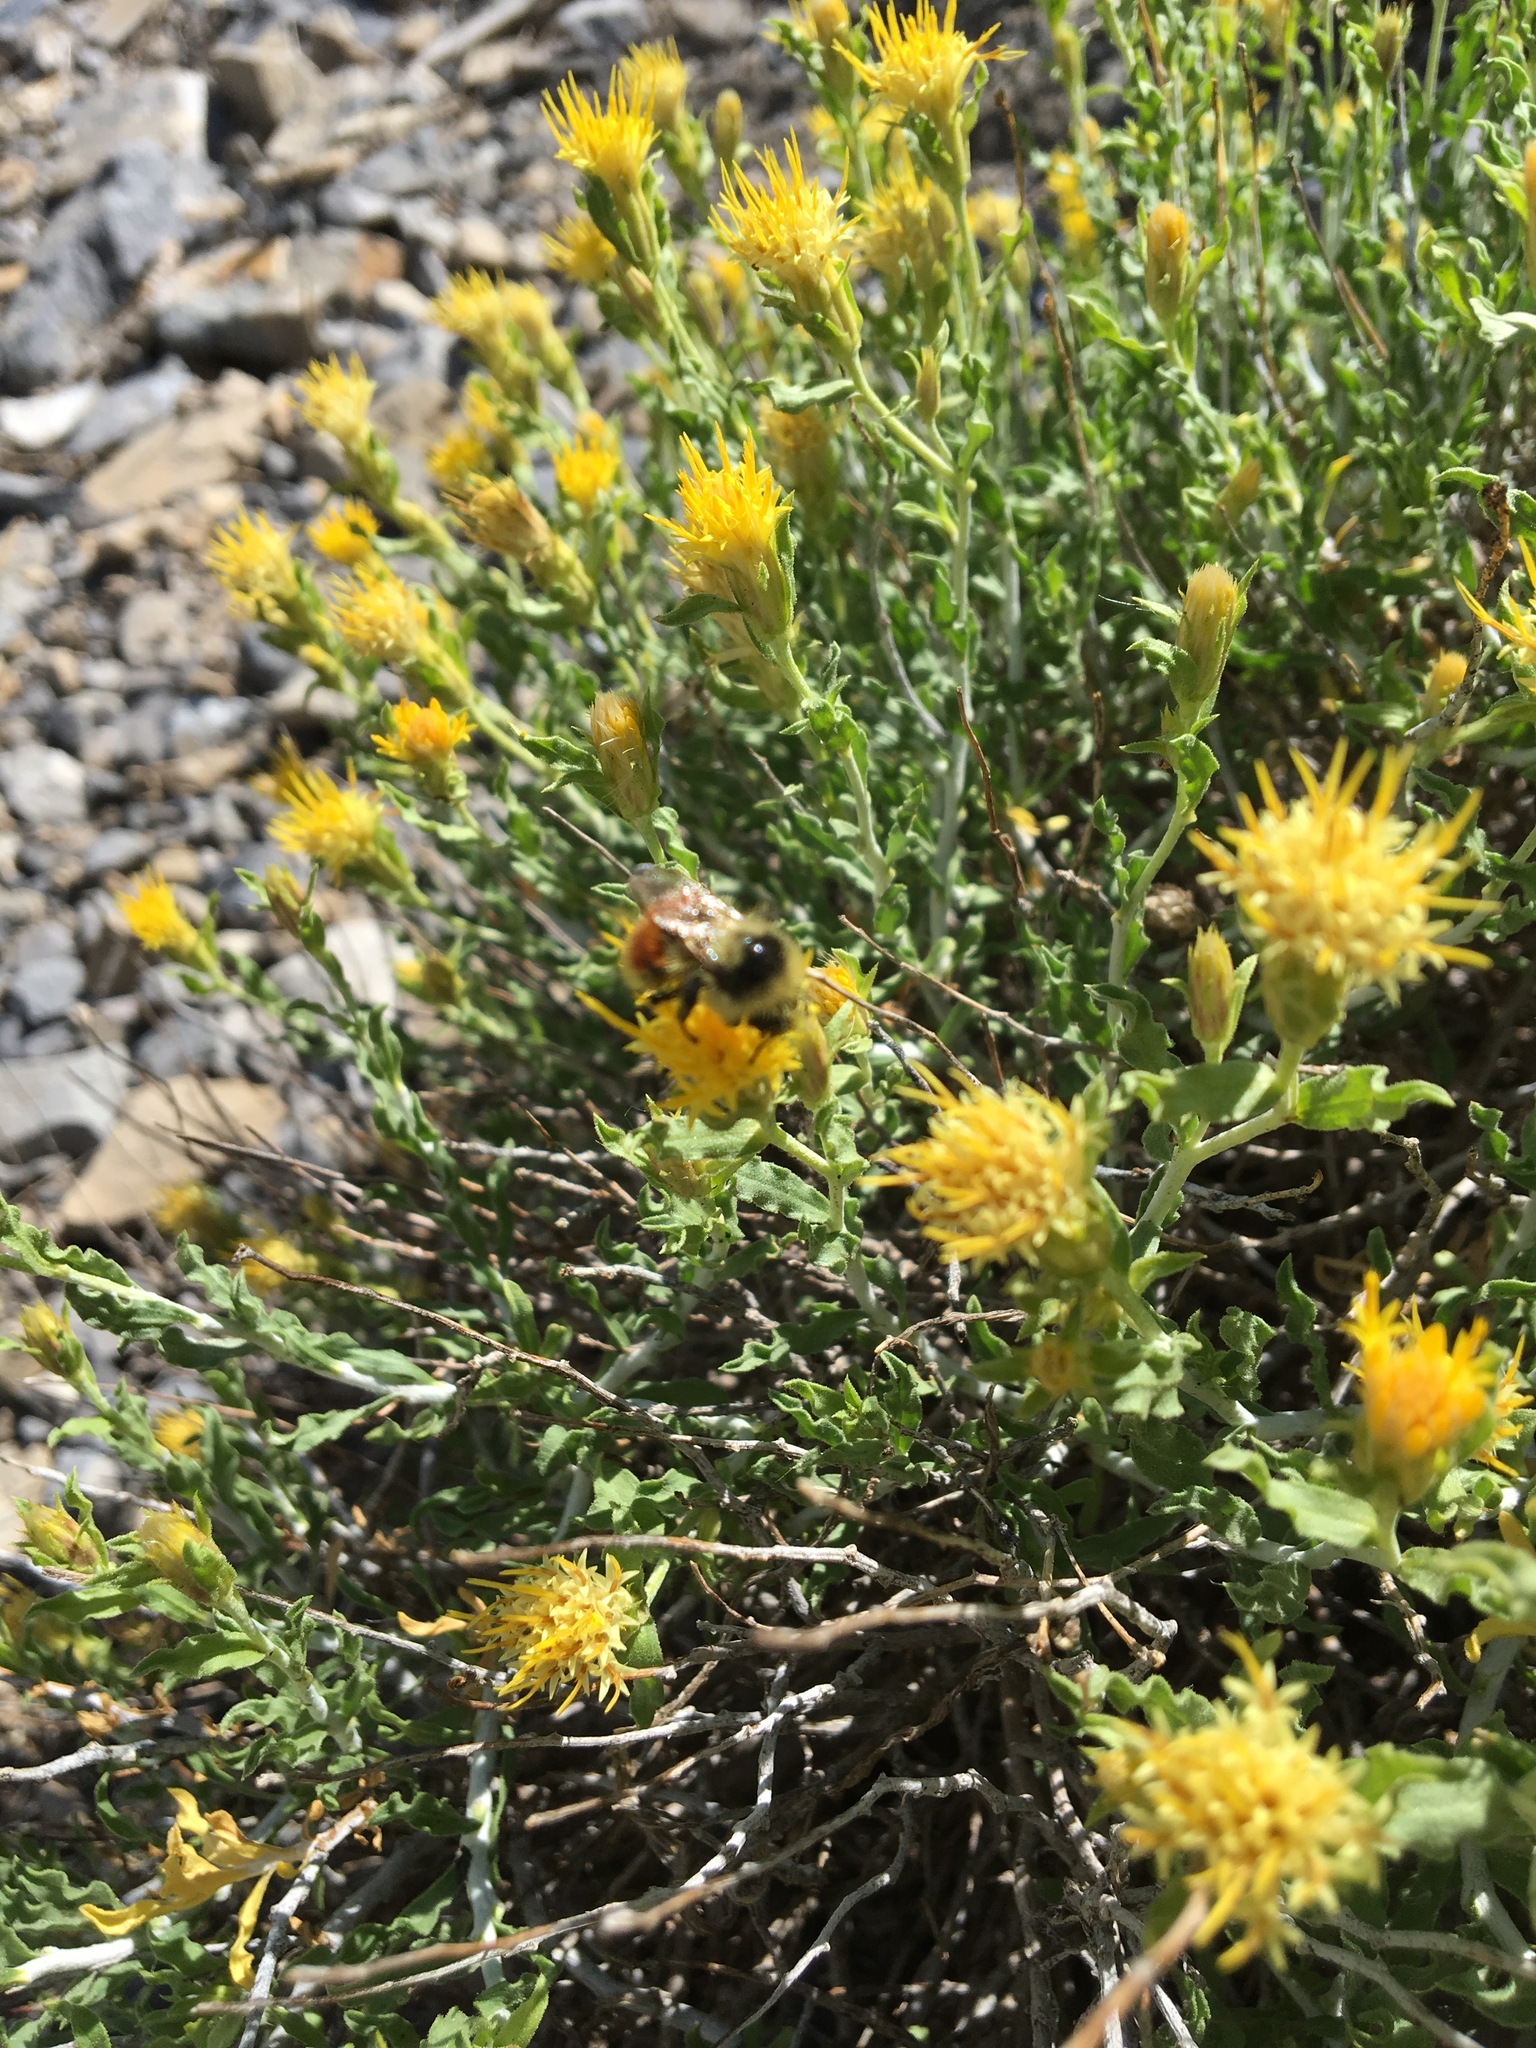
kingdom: Plantae
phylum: Tracheophyta
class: Magnoliopsida
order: Asterales
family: Asteraceae
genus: Ericameria
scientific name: Ericameria discoidea
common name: Sharp-scale goldenweed
